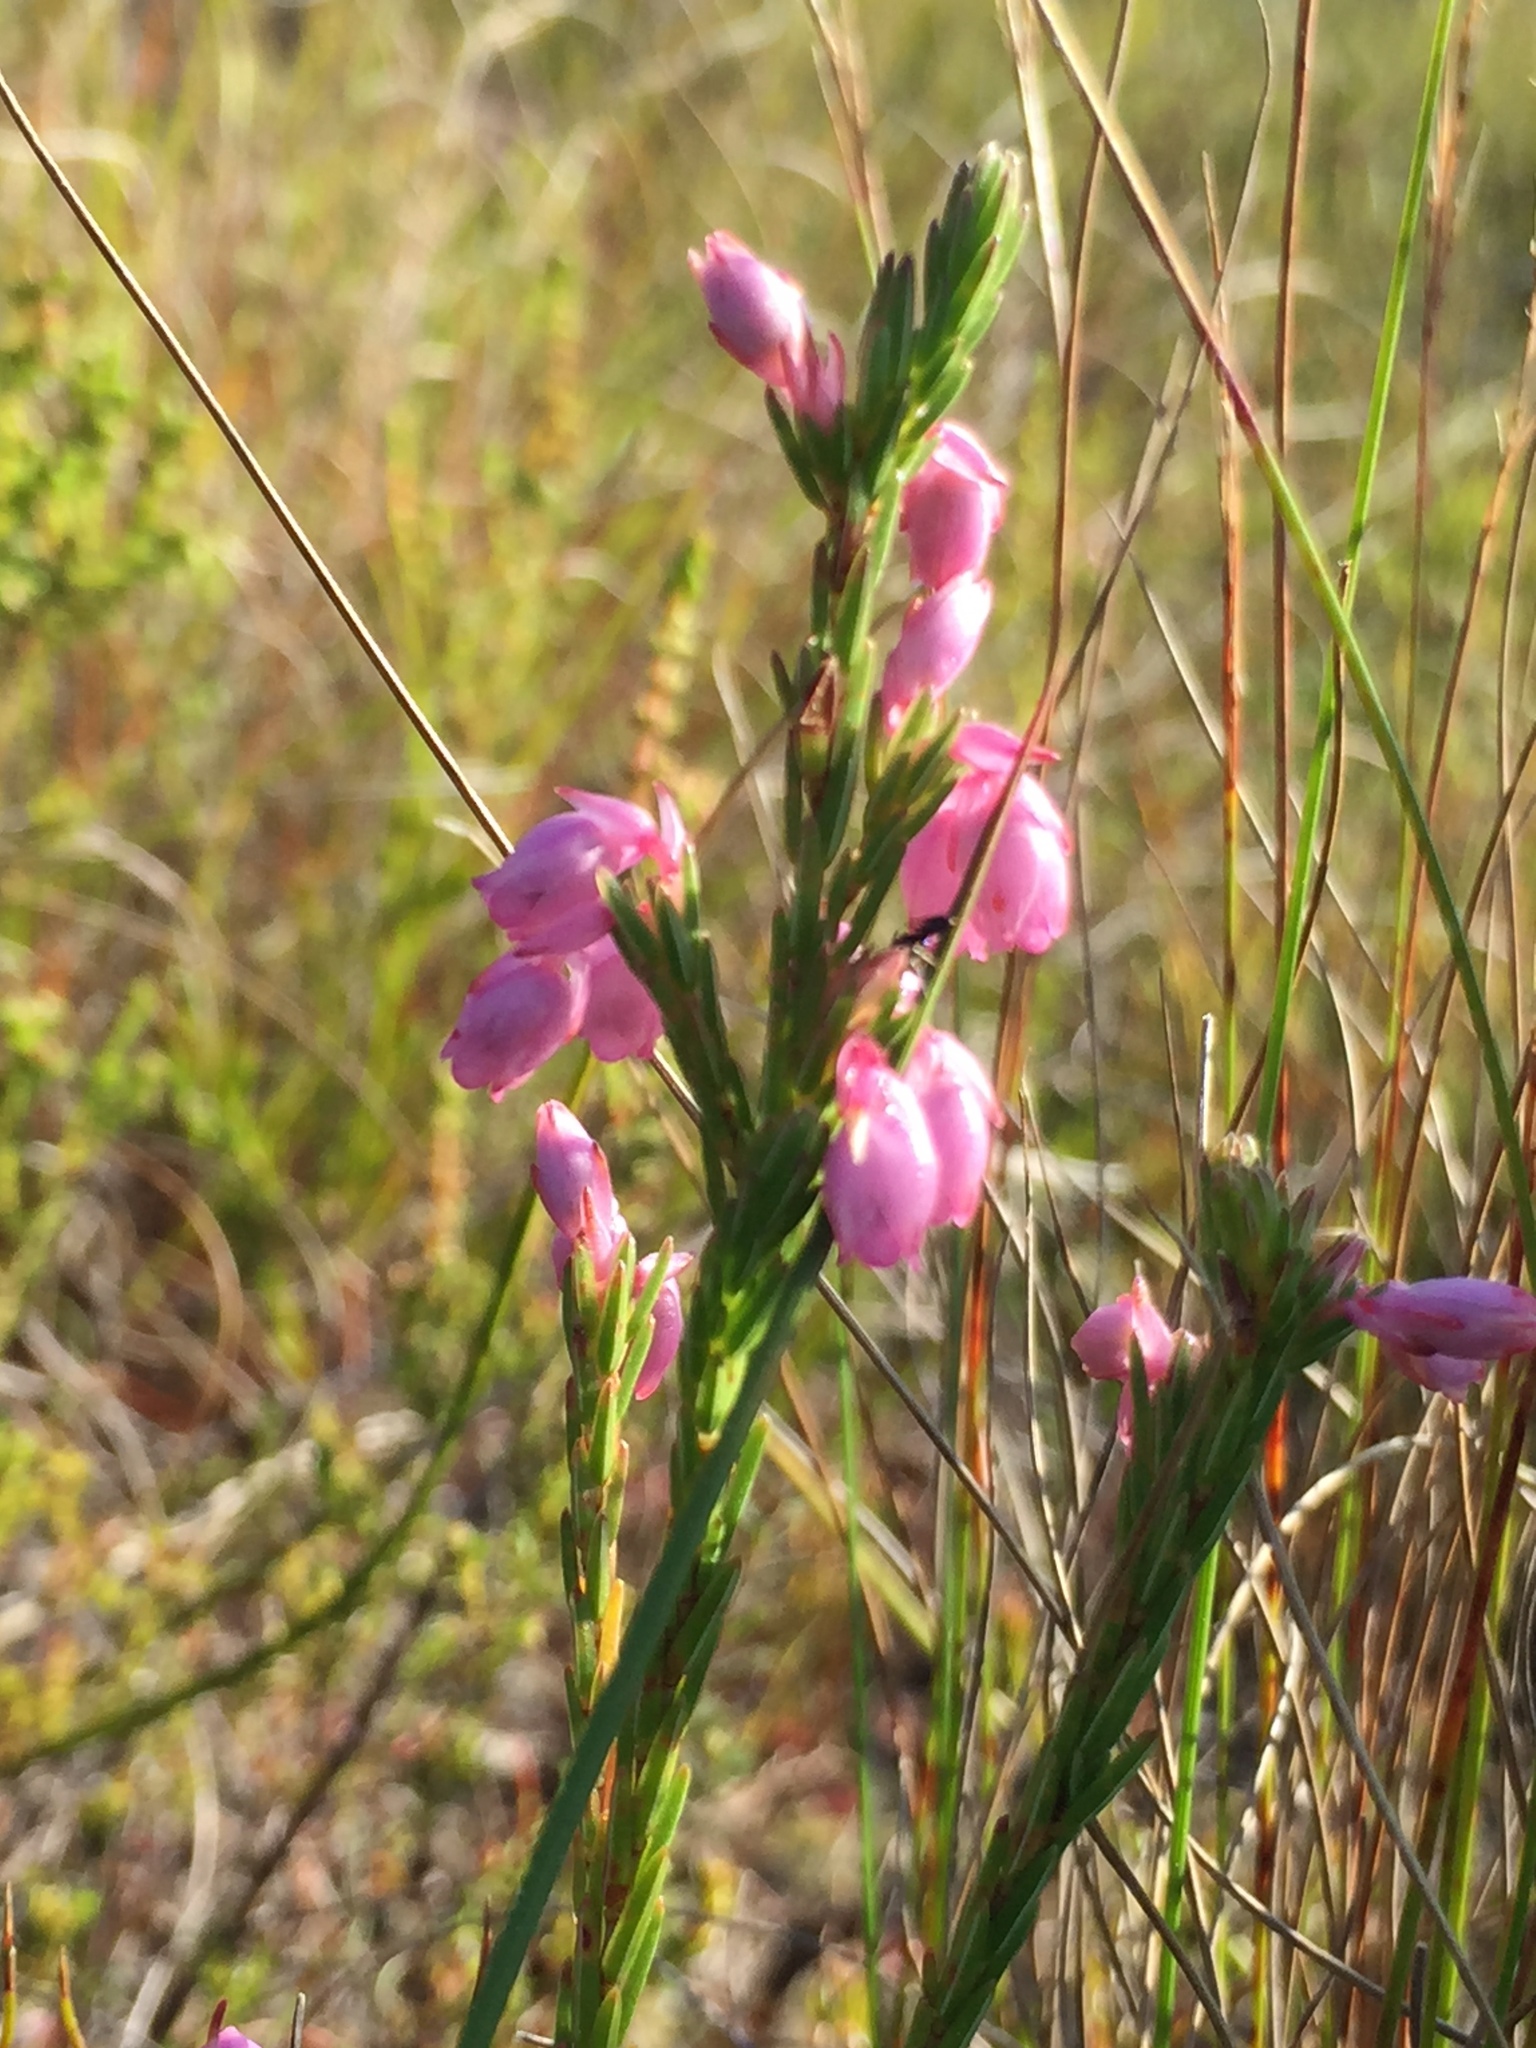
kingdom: Plantae
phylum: Tracheophyta
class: Magnoliopsida
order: Ericales
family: Ericaceae
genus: Erica
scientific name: Erica palliiflora
